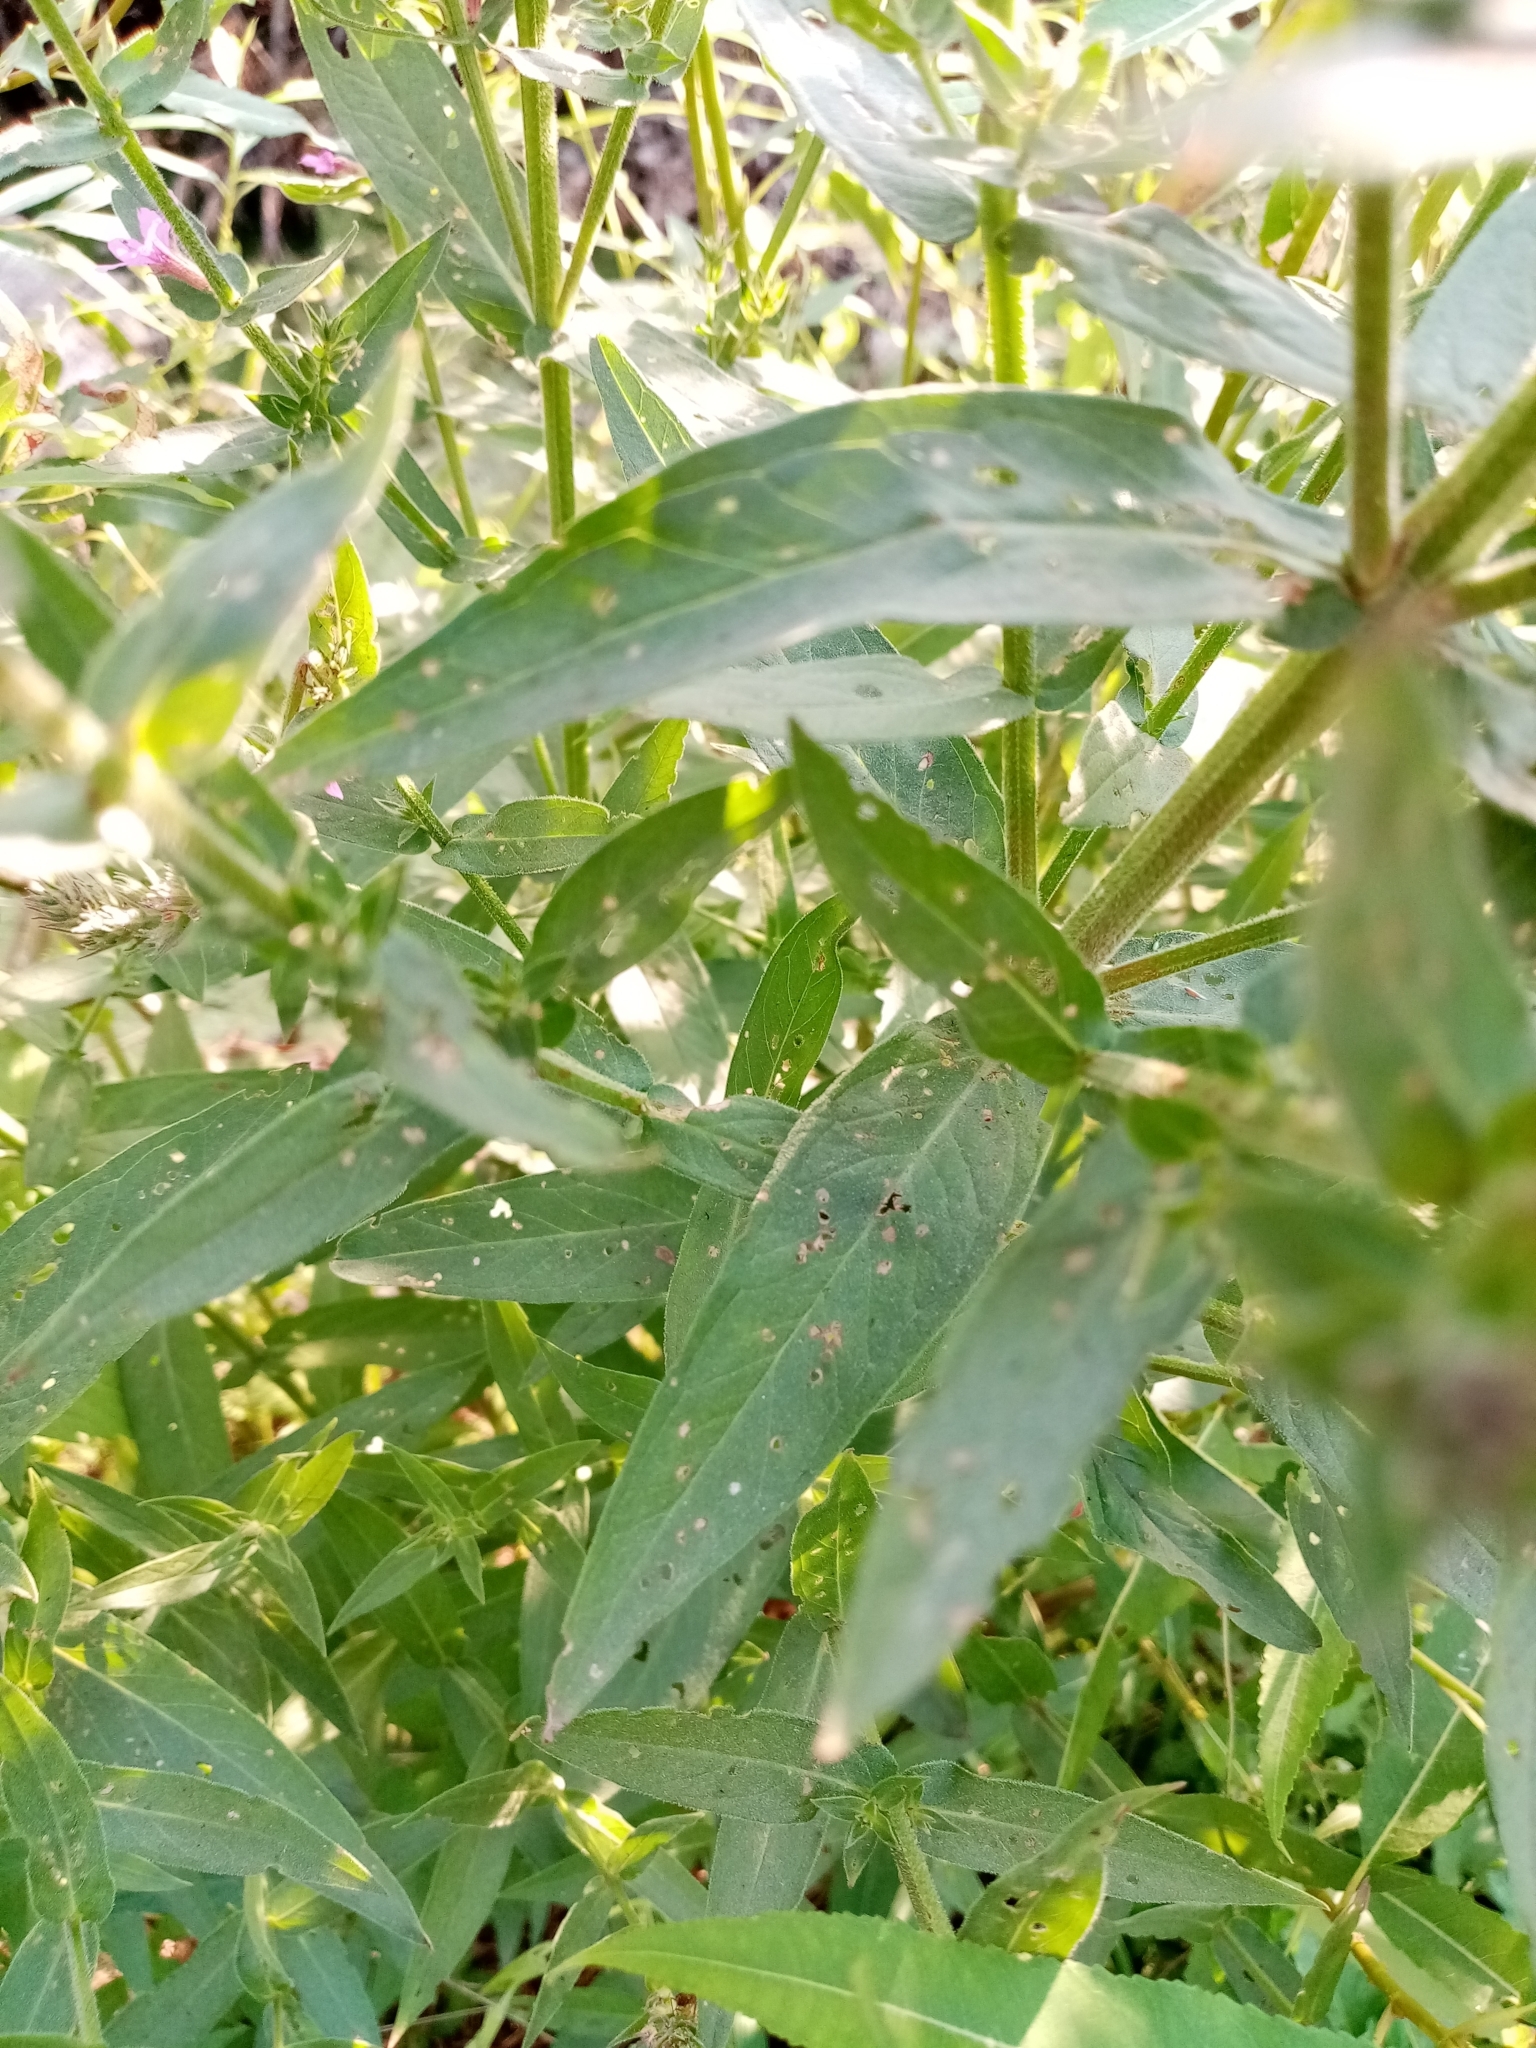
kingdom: Plantae
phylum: Tracheophyta
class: Magnoliopsida
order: Myrtales
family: Lythraceae
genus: Lythrum
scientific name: Lythrum salicaria
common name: Purple loosestrife
